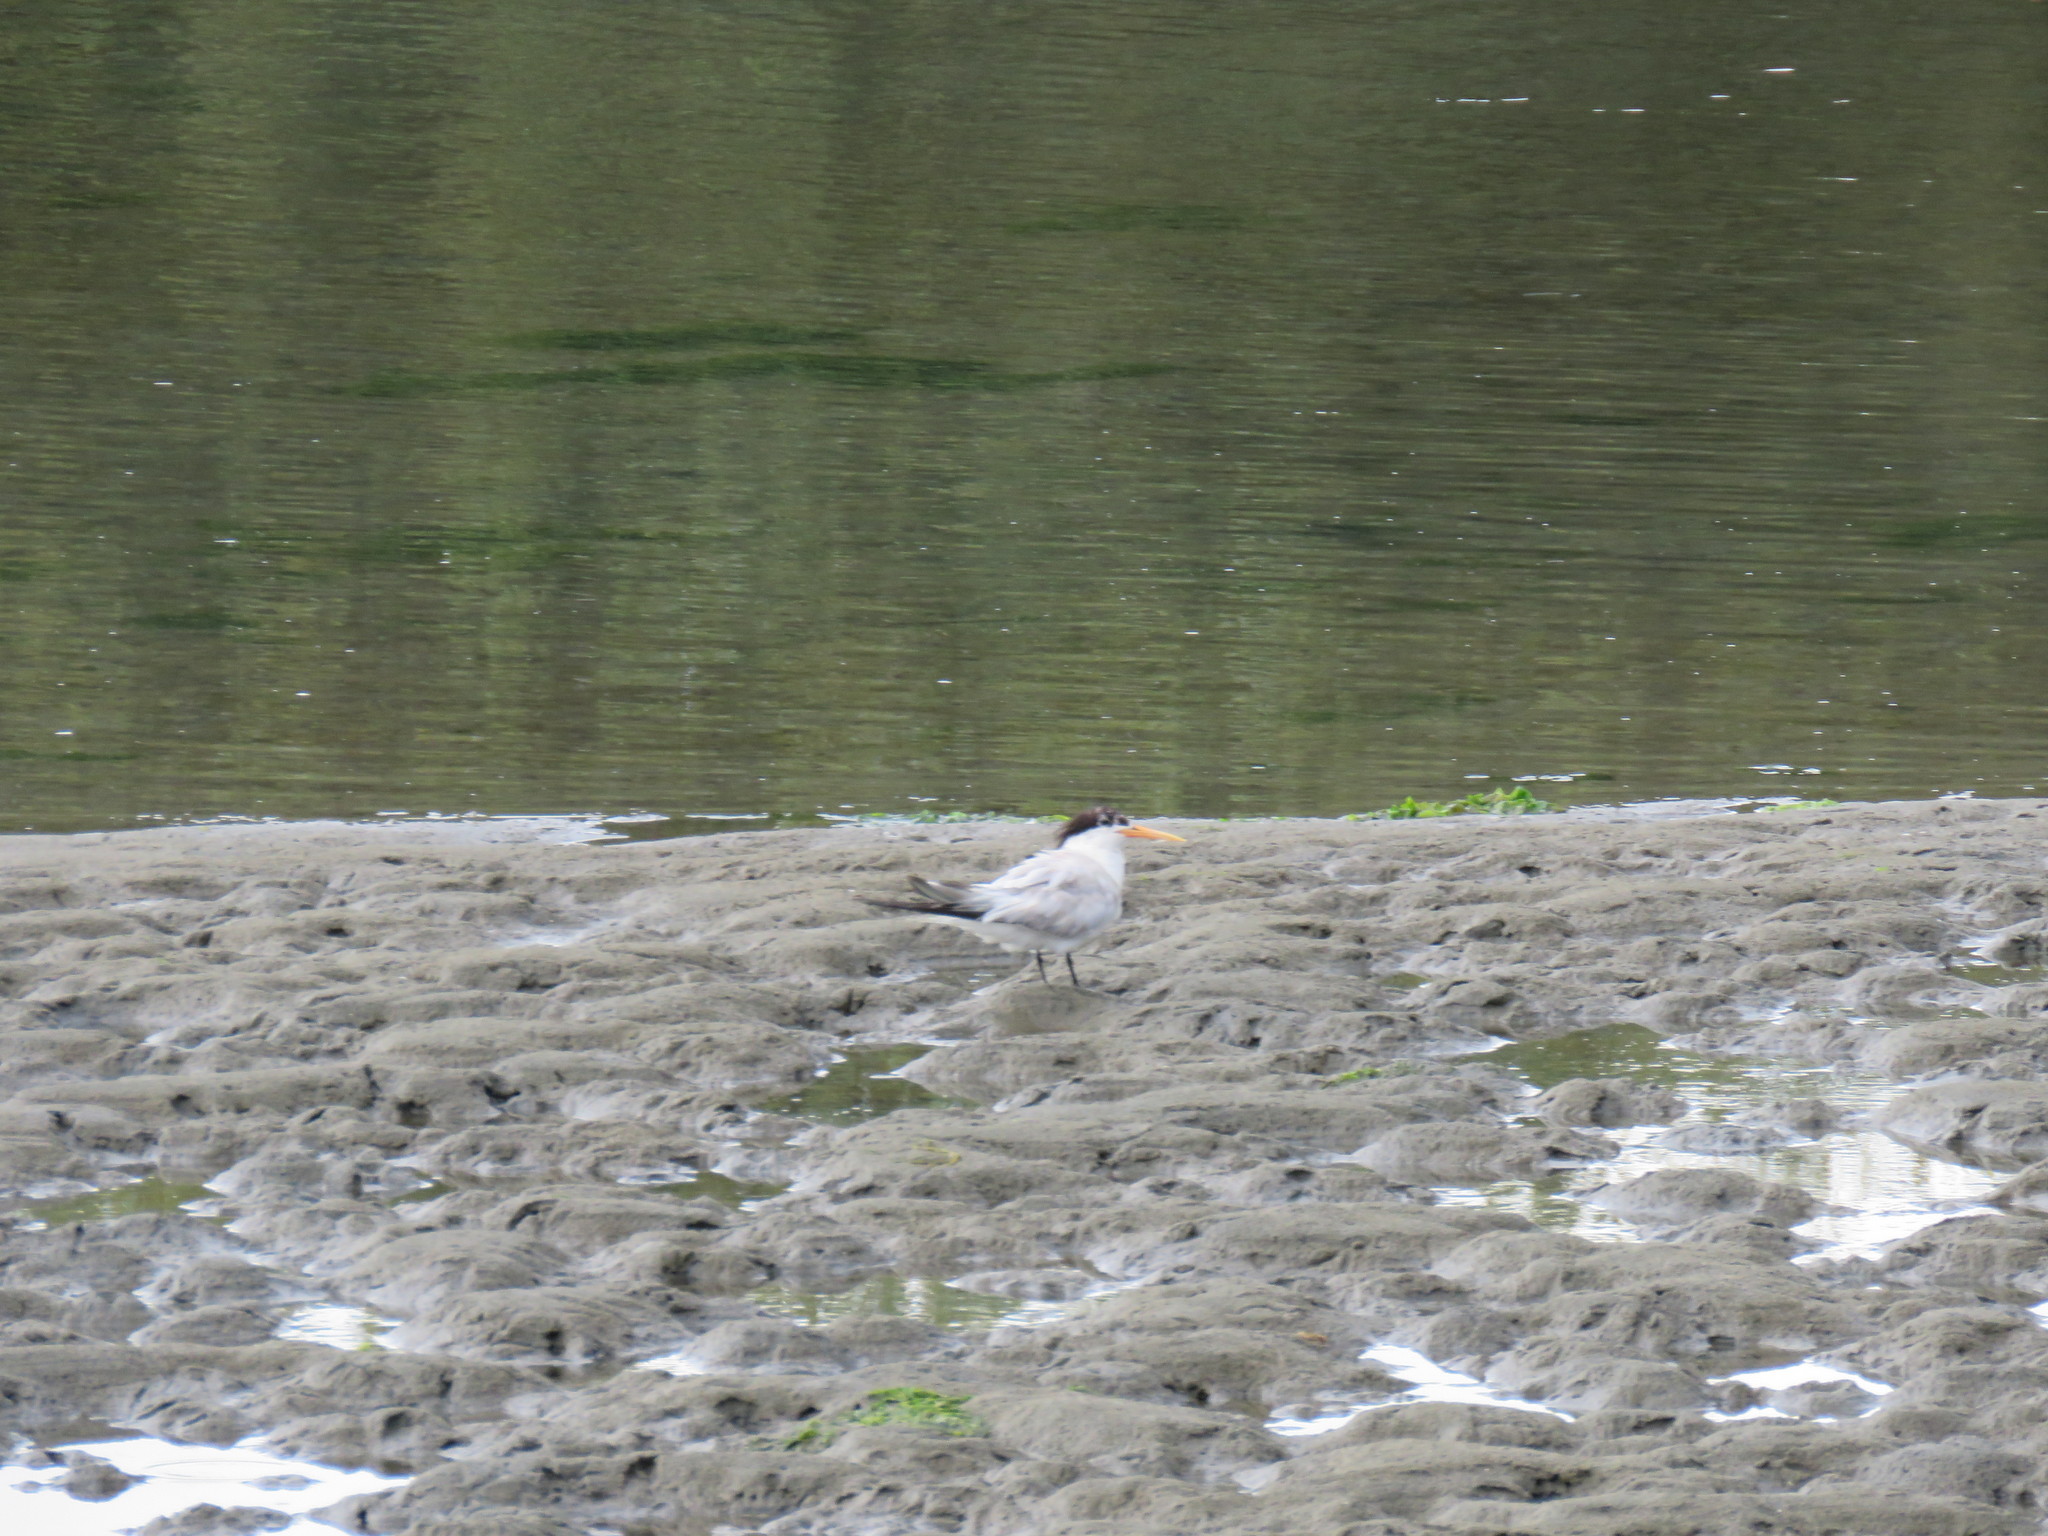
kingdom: Animalia
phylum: Chordata
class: Aves
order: Charadriiformes
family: Laridae
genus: Thalasseus
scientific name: Thalasseus elegans
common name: Elegant tern
